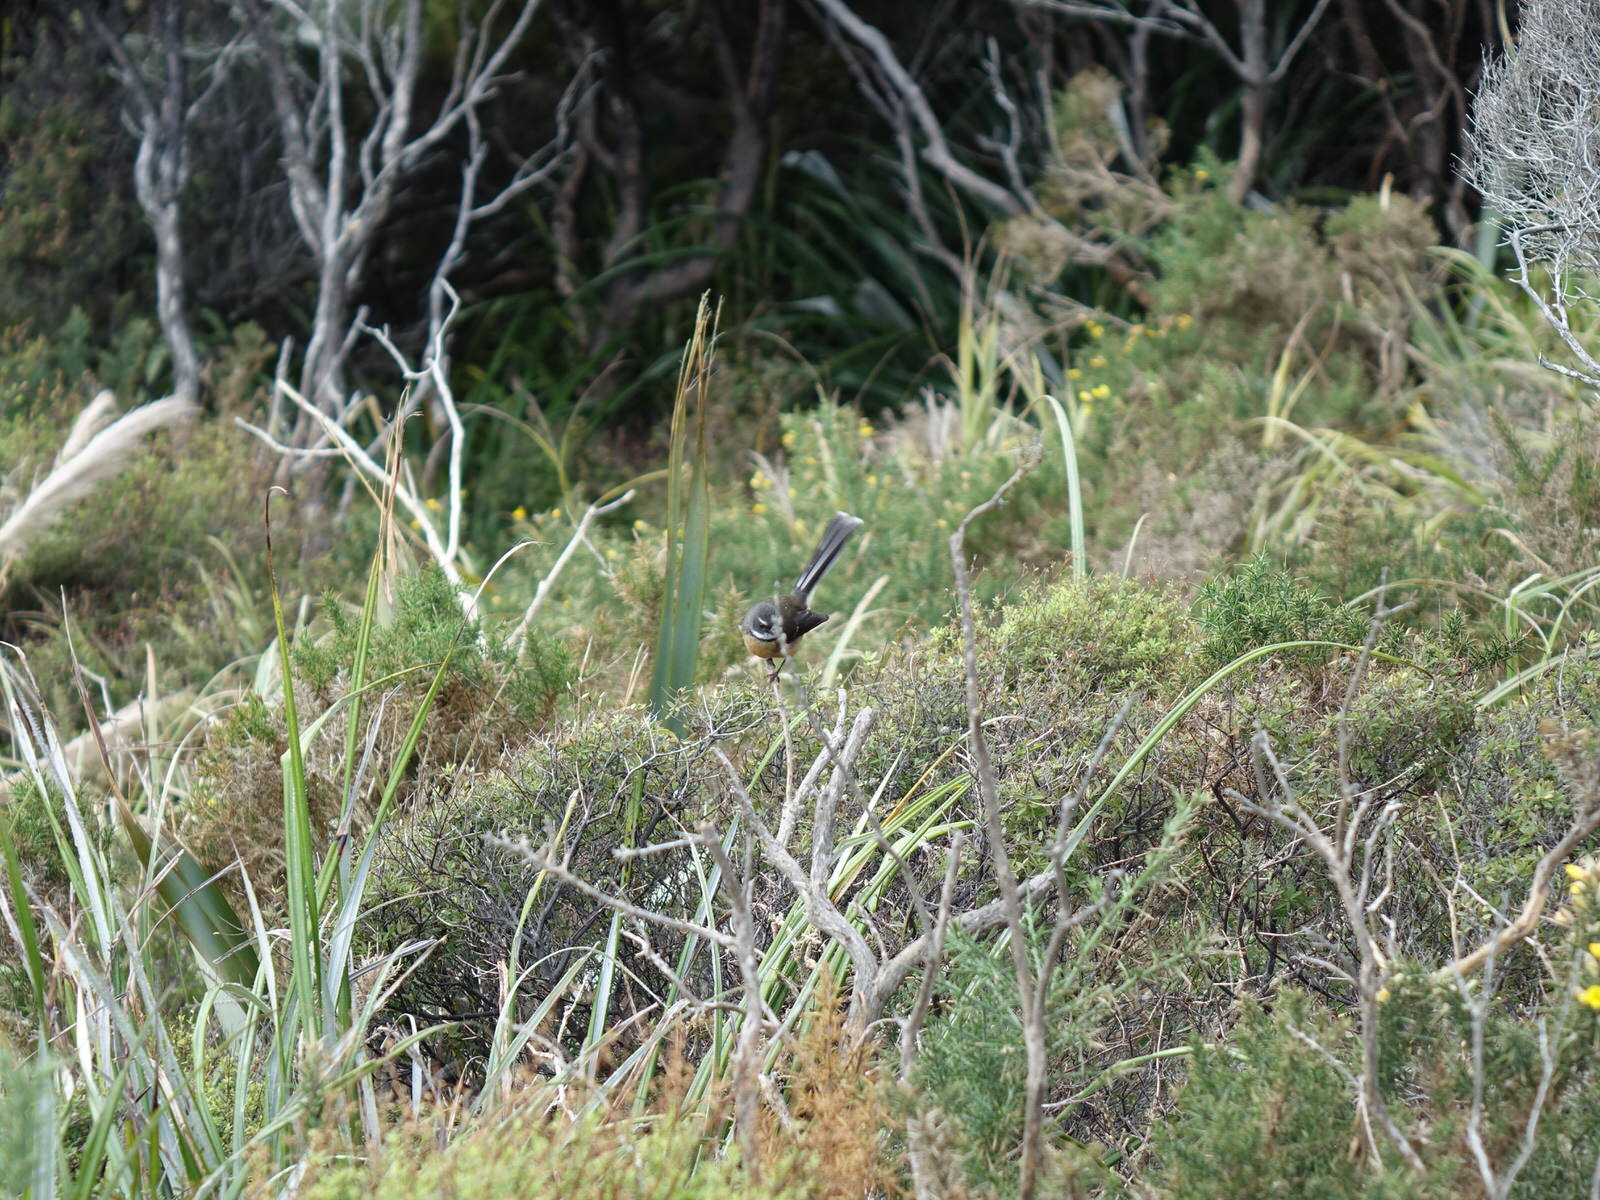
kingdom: Animalia
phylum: Chordata
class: Aves
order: Passeriformes
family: Rhipiduridae
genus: Rhipidura
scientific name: Rhipidura fuliginosa
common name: New zealand fantail
